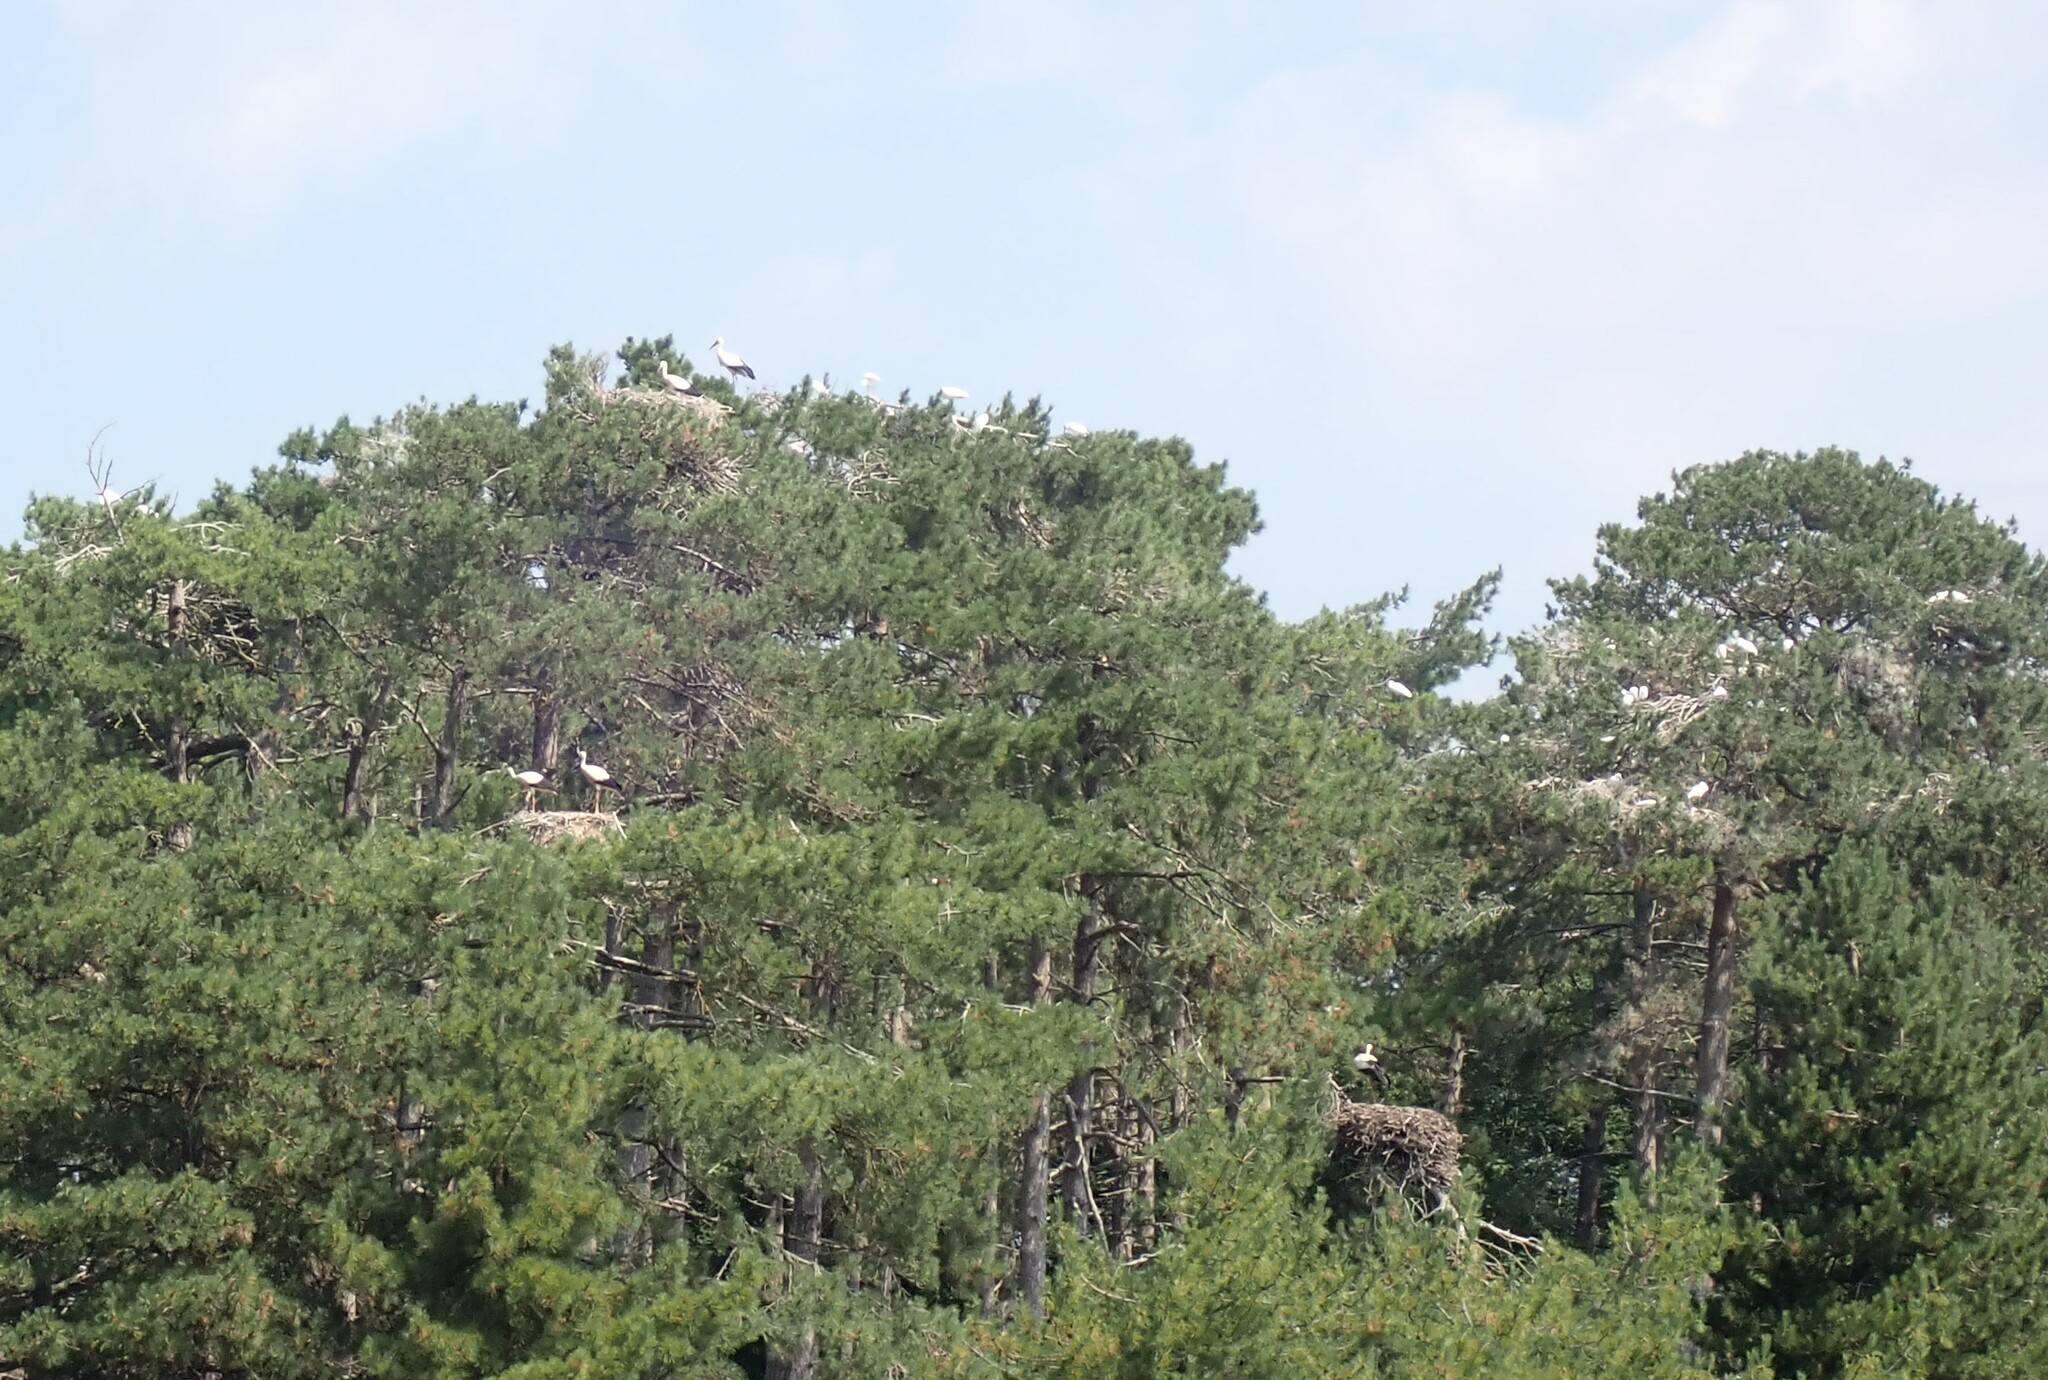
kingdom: Animalia
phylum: Chordata
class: Aves
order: Ciconiiformes
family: Ciconiidae
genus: Ciconia
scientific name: Ciconia ciconia
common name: White stork
